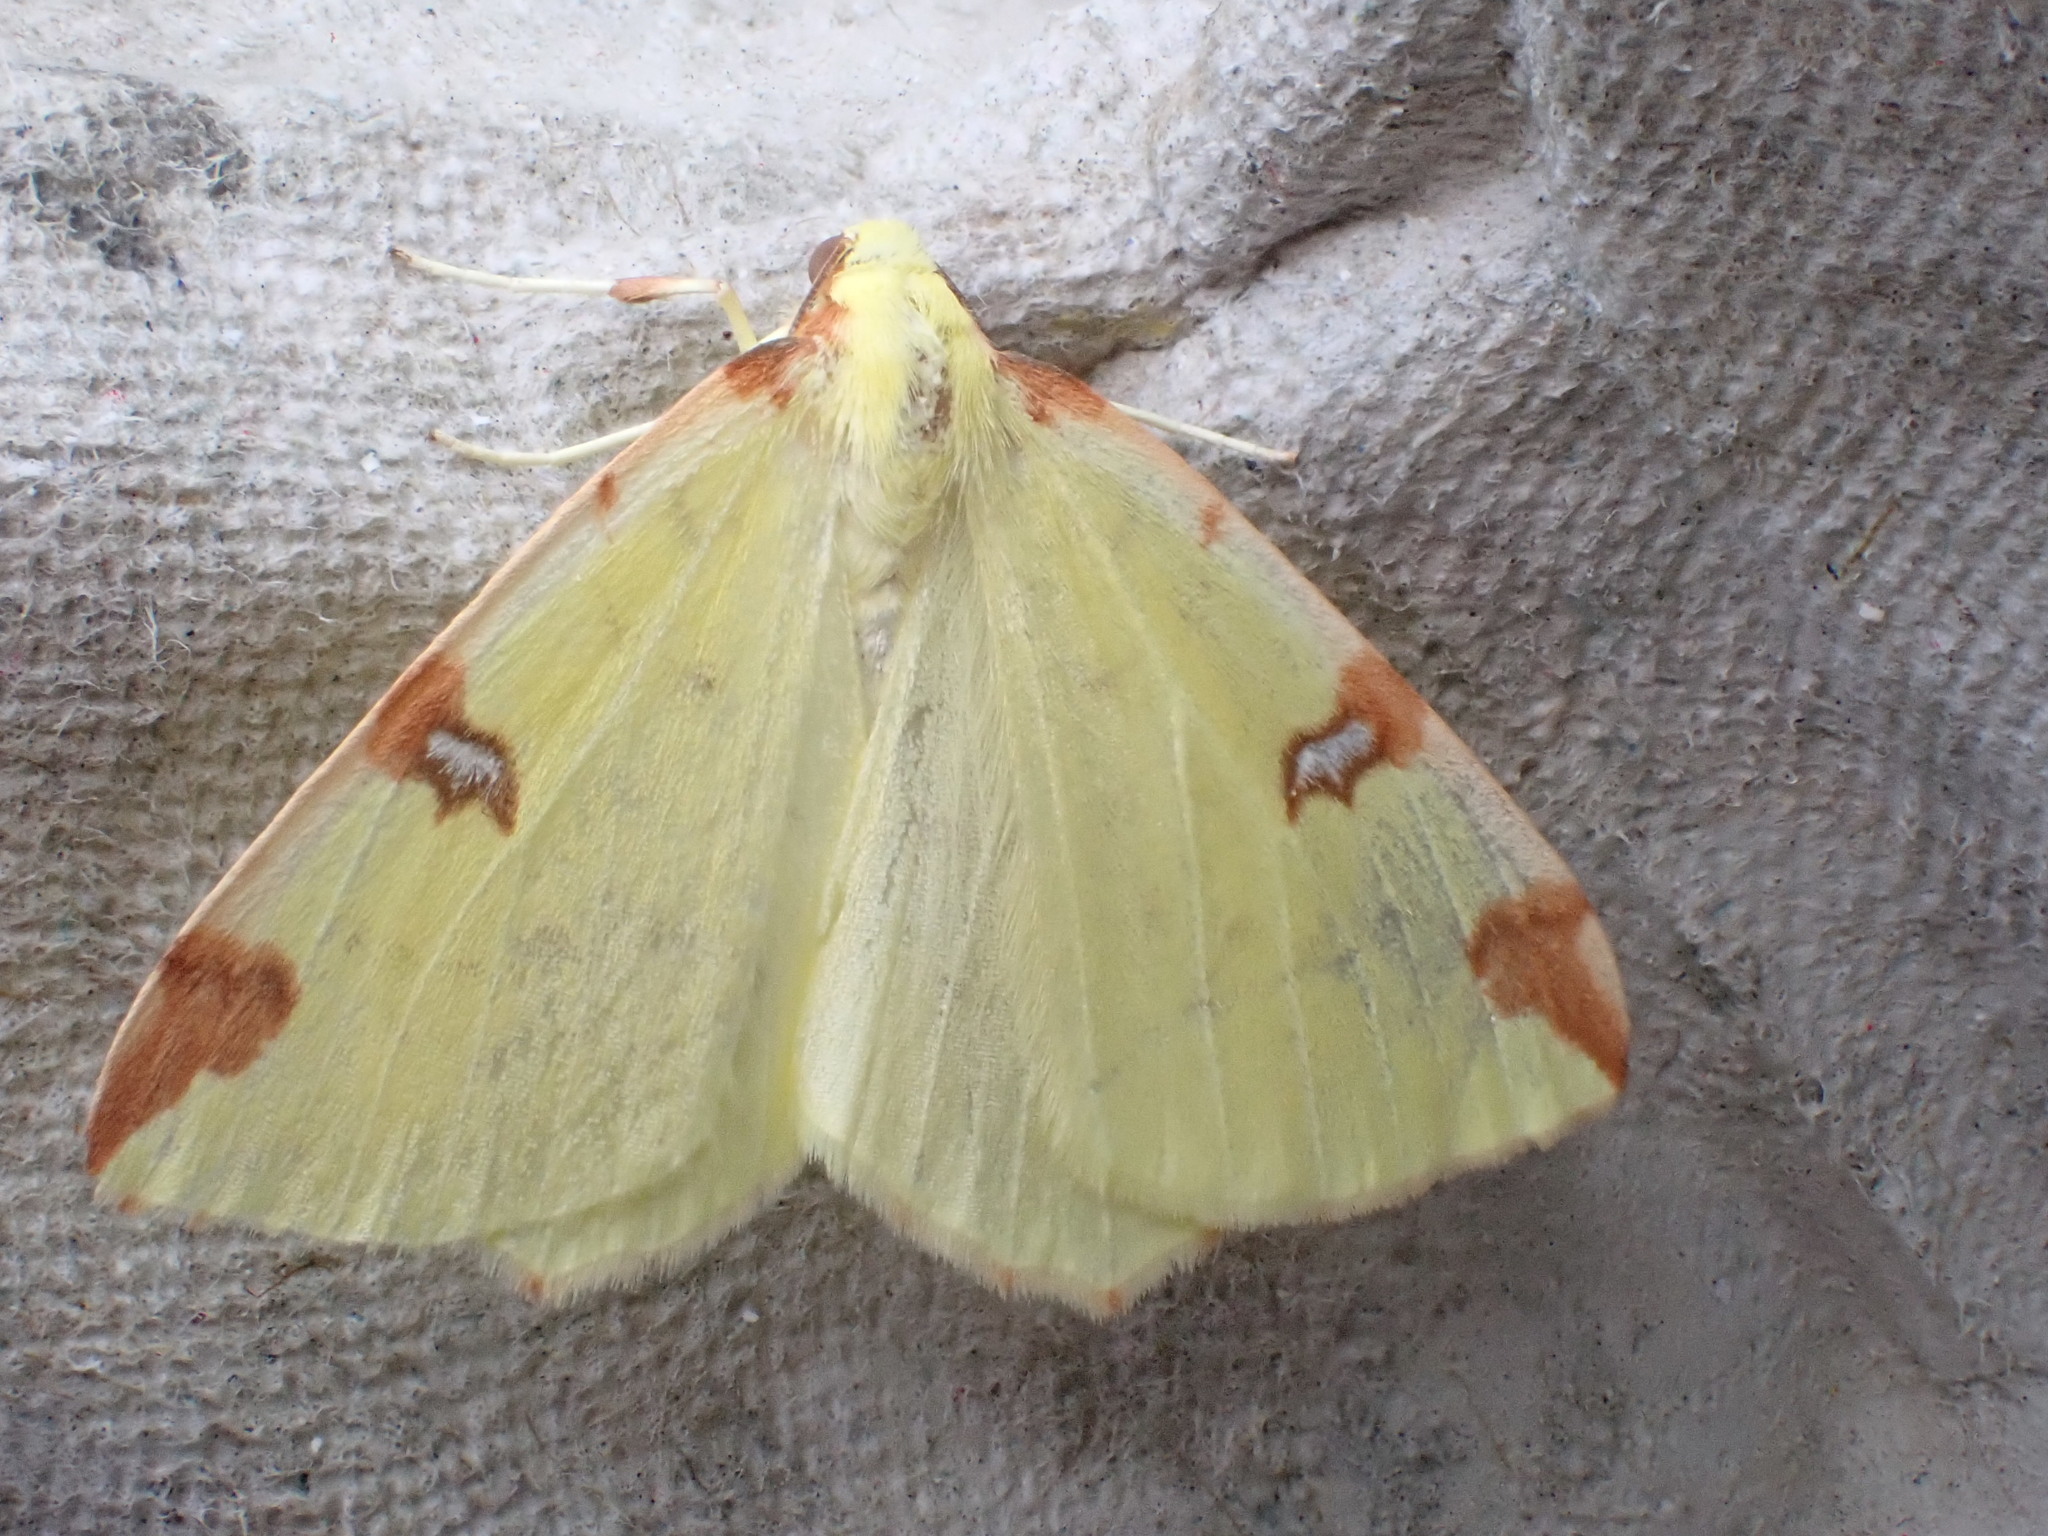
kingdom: Animalia
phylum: Arthropoda
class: Insecta
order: Lepidoptera
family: Geometridae
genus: Opisthograptis
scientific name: Opisthograptis luteolata
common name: Brimstone moth
